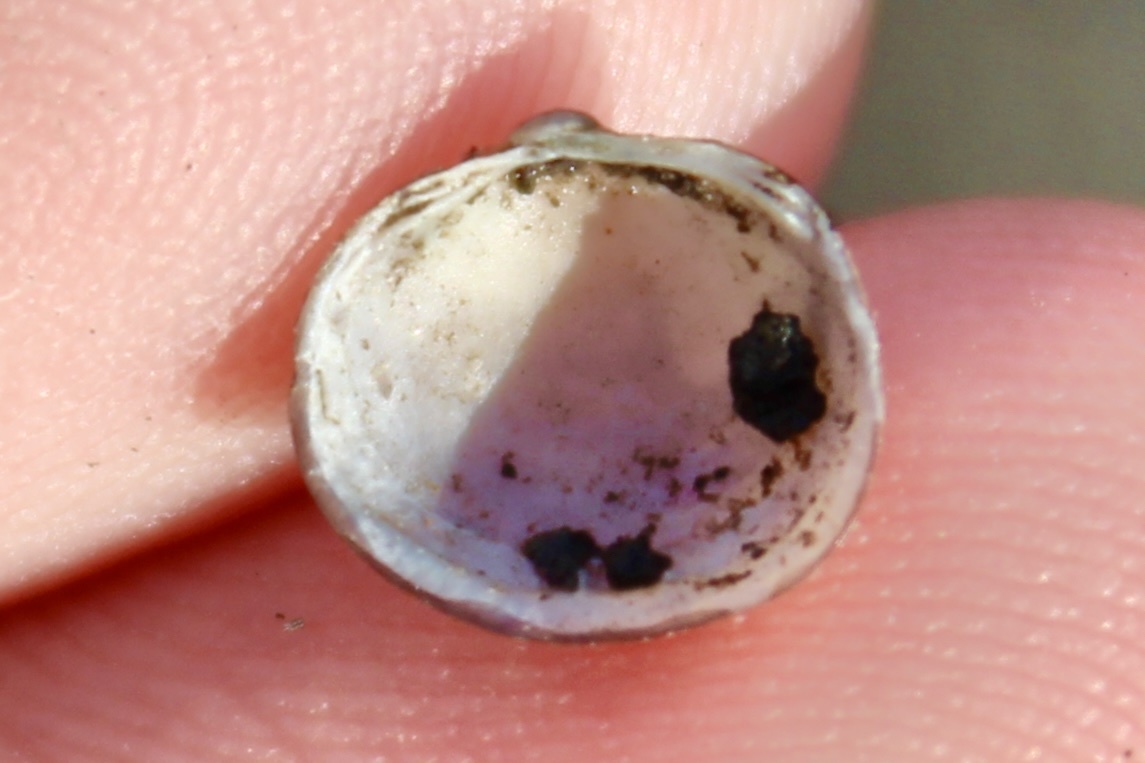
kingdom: Animalia
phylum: Mollusca
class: Bivalvia
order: Sphaeriida
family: Sphaeriidae
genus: Musculium
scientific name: Musculium partumeium
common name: Swamp fingernailclam
